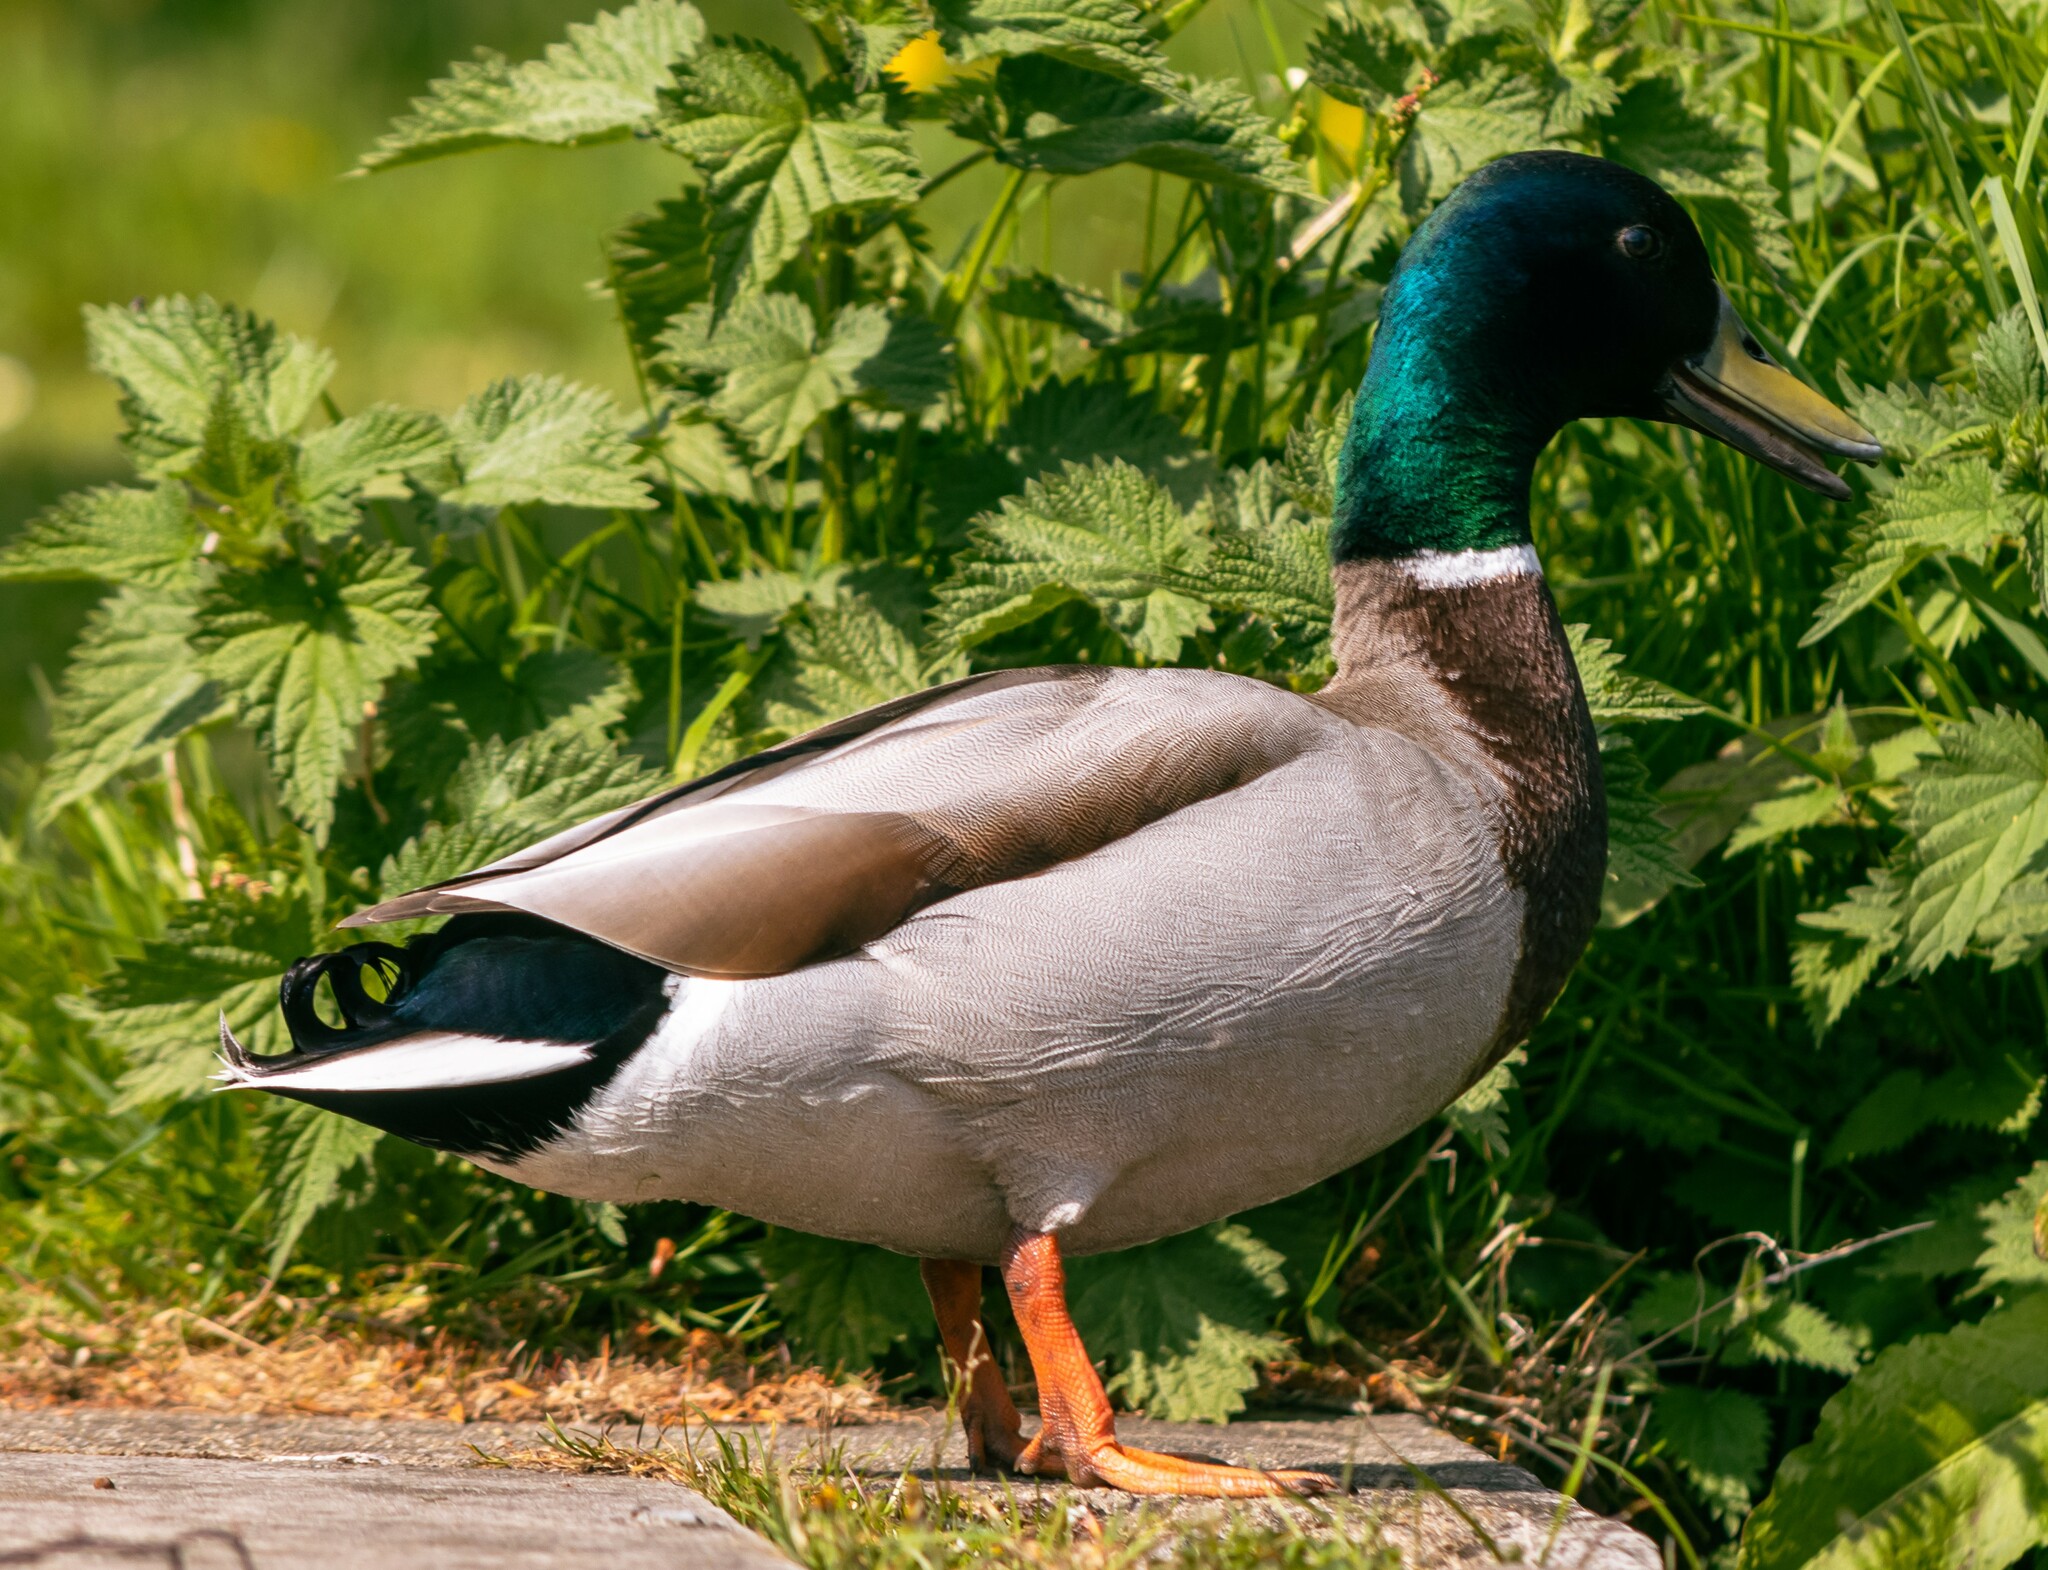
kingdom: Animalia
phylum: Chordata
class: Aves
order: Anseriformes
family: Anatidae
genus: Anas
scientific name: Anas platyrhynchos
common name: Mallard
